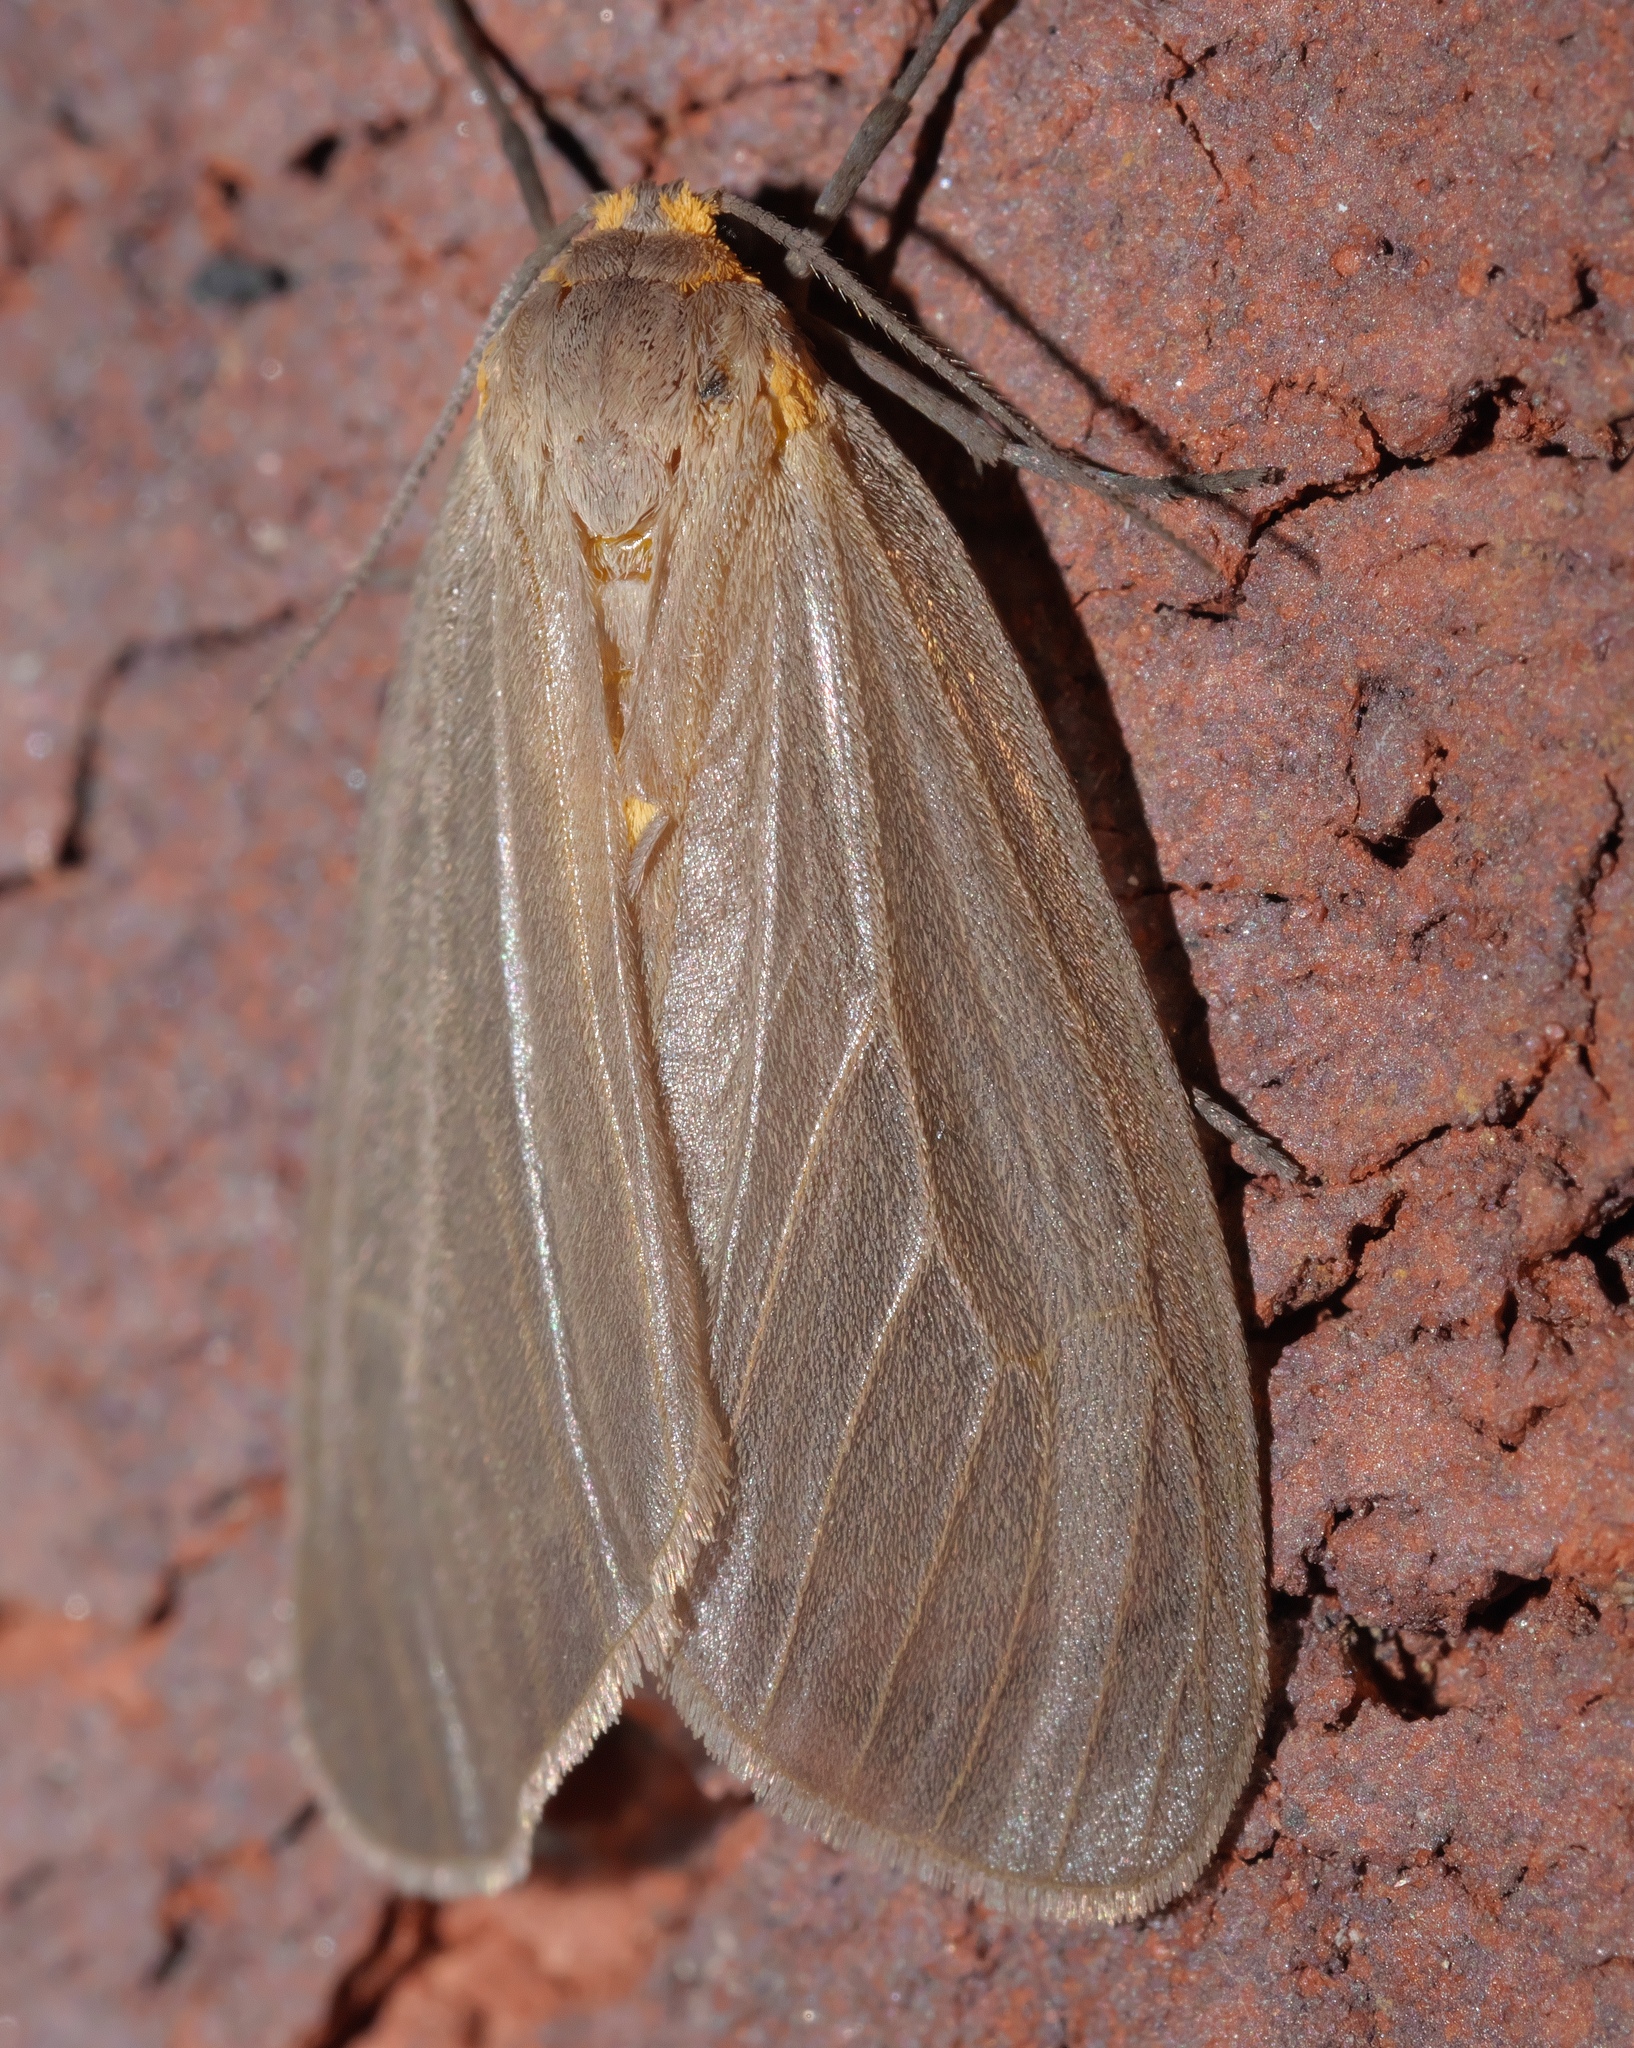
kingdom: Animalia
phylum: Arthropoda
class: Insecta
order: Lepidoptera
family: Erebidae
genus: Pagara
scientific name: Pagara simplex
